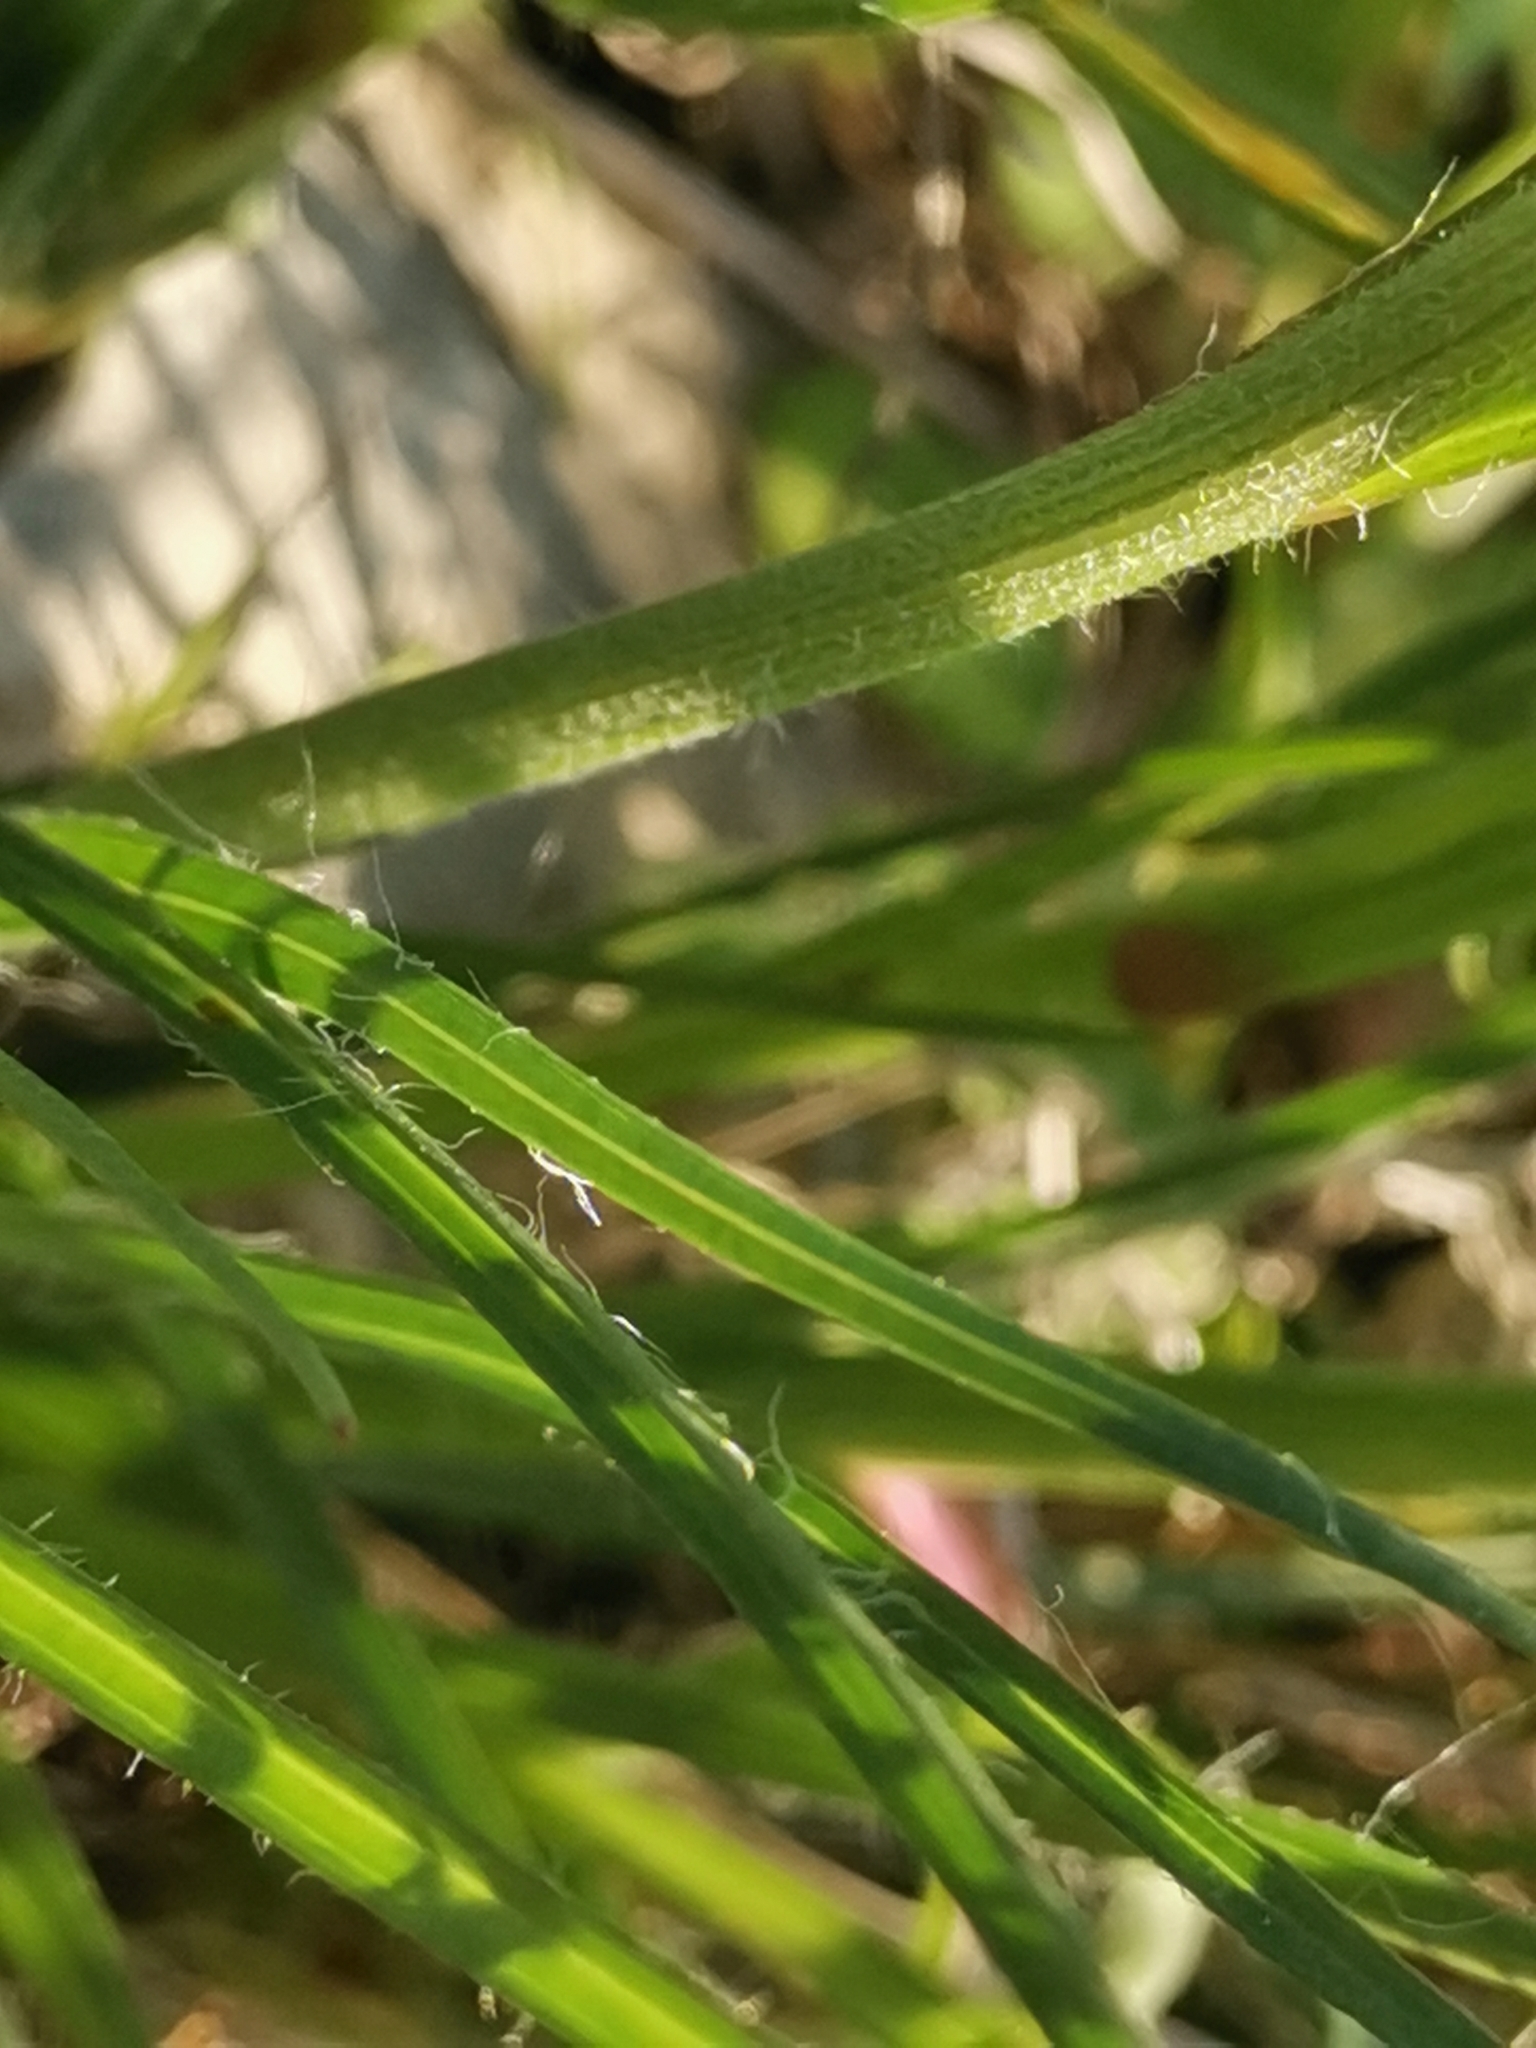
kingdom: Plantae
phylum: Tracheophyta
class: Magnoliopsida
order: Asterales
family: Asteraceae
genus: Gelasia
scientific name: Gelasia villosa
